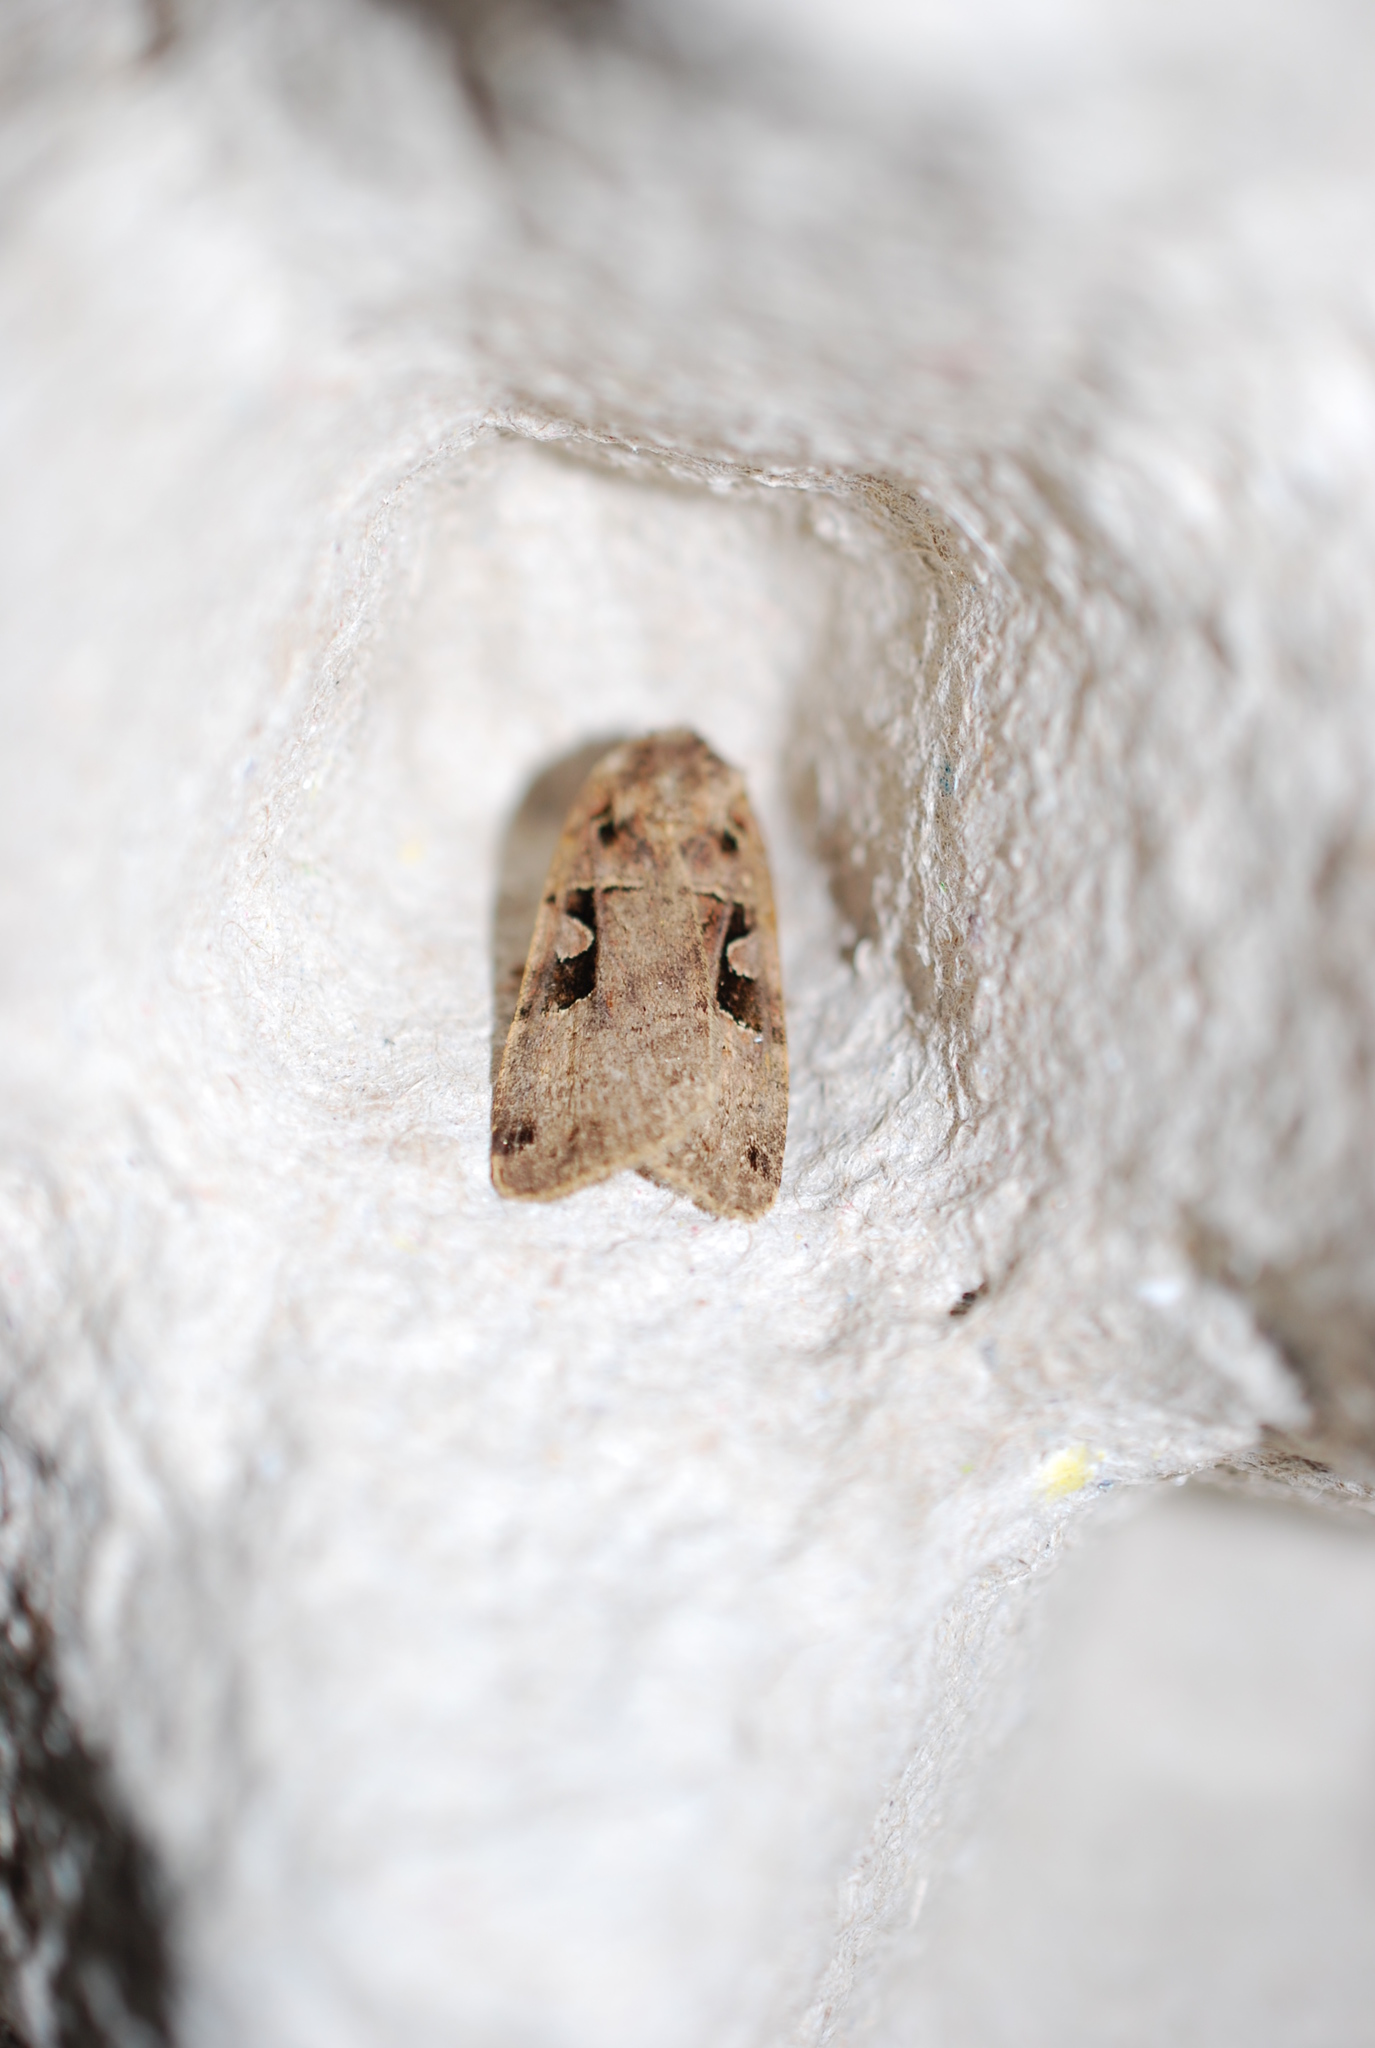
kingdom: Animalia
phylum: Arthropoda
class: Insecta
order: Lepidoptera
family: Noctuidae
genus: Xestia
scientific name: Xestia triangulum
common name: Double square-spot
